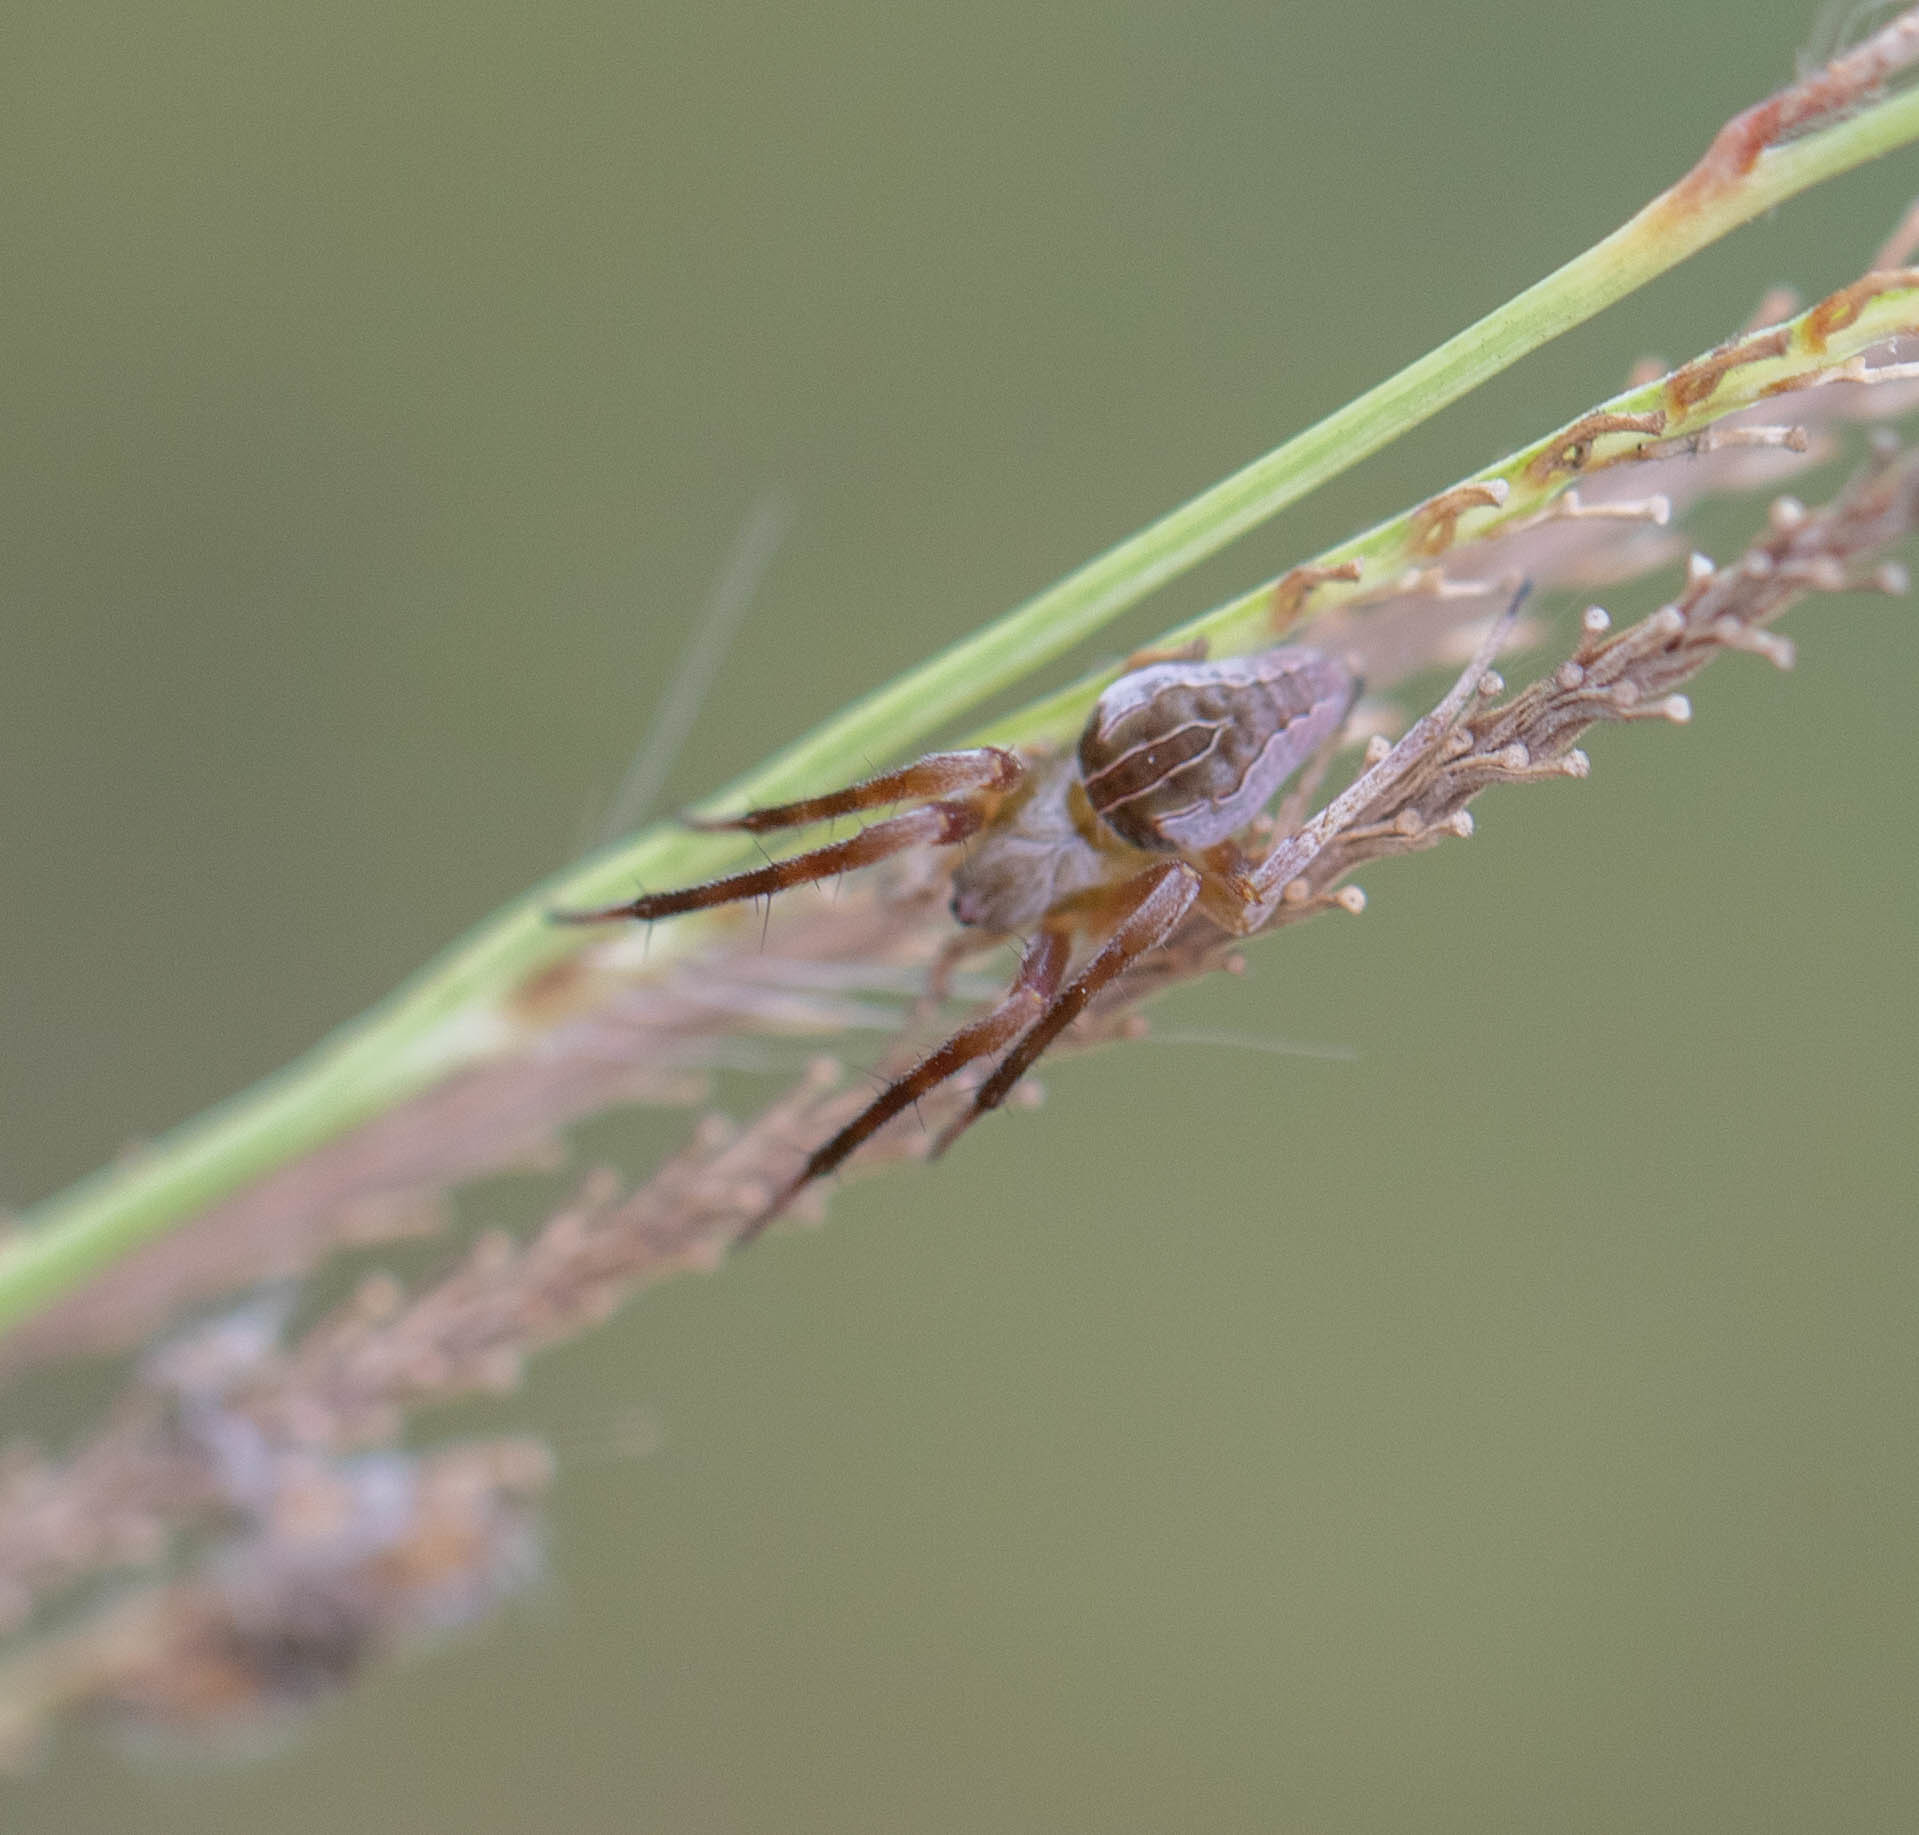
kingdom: Animalia
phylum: Arthropoda
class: Arachnida
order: Araneae
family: Araneidae
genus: Acacesia
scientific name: Acacesia hamata
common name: Orb weavers
